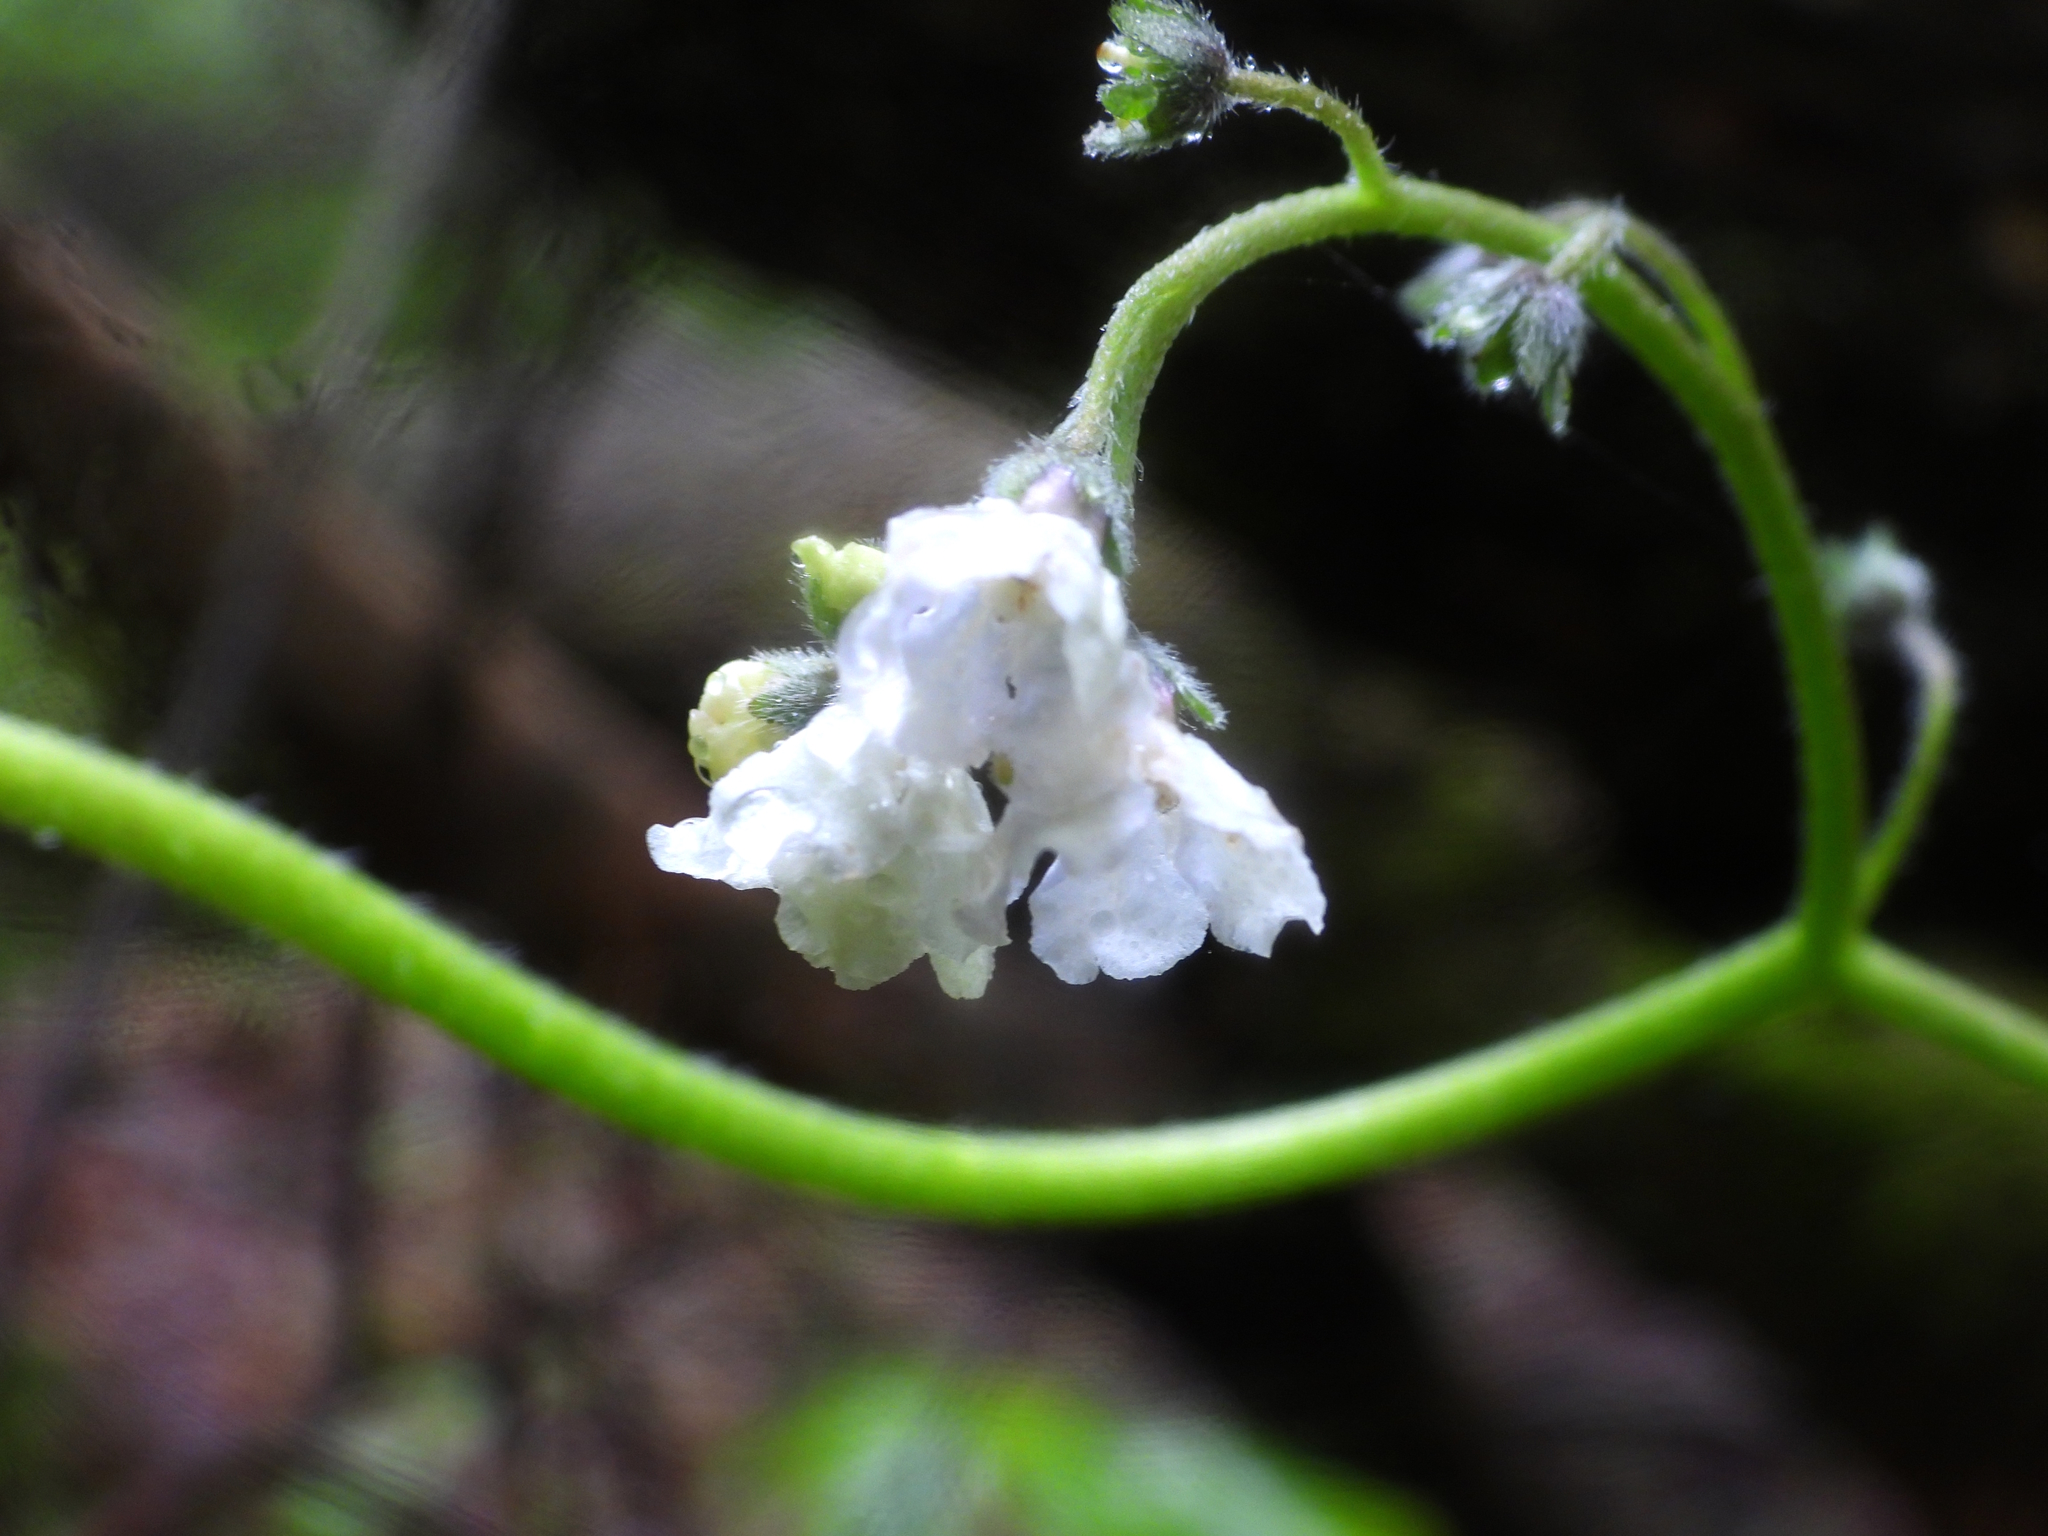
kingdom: Plantae
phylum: Tracheophyta
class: Magnoliopsida
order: Boraginales
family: Boraginaceae
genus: Andersonglossum
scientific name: Andersonglossum virginianum
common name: Wild comfrey
